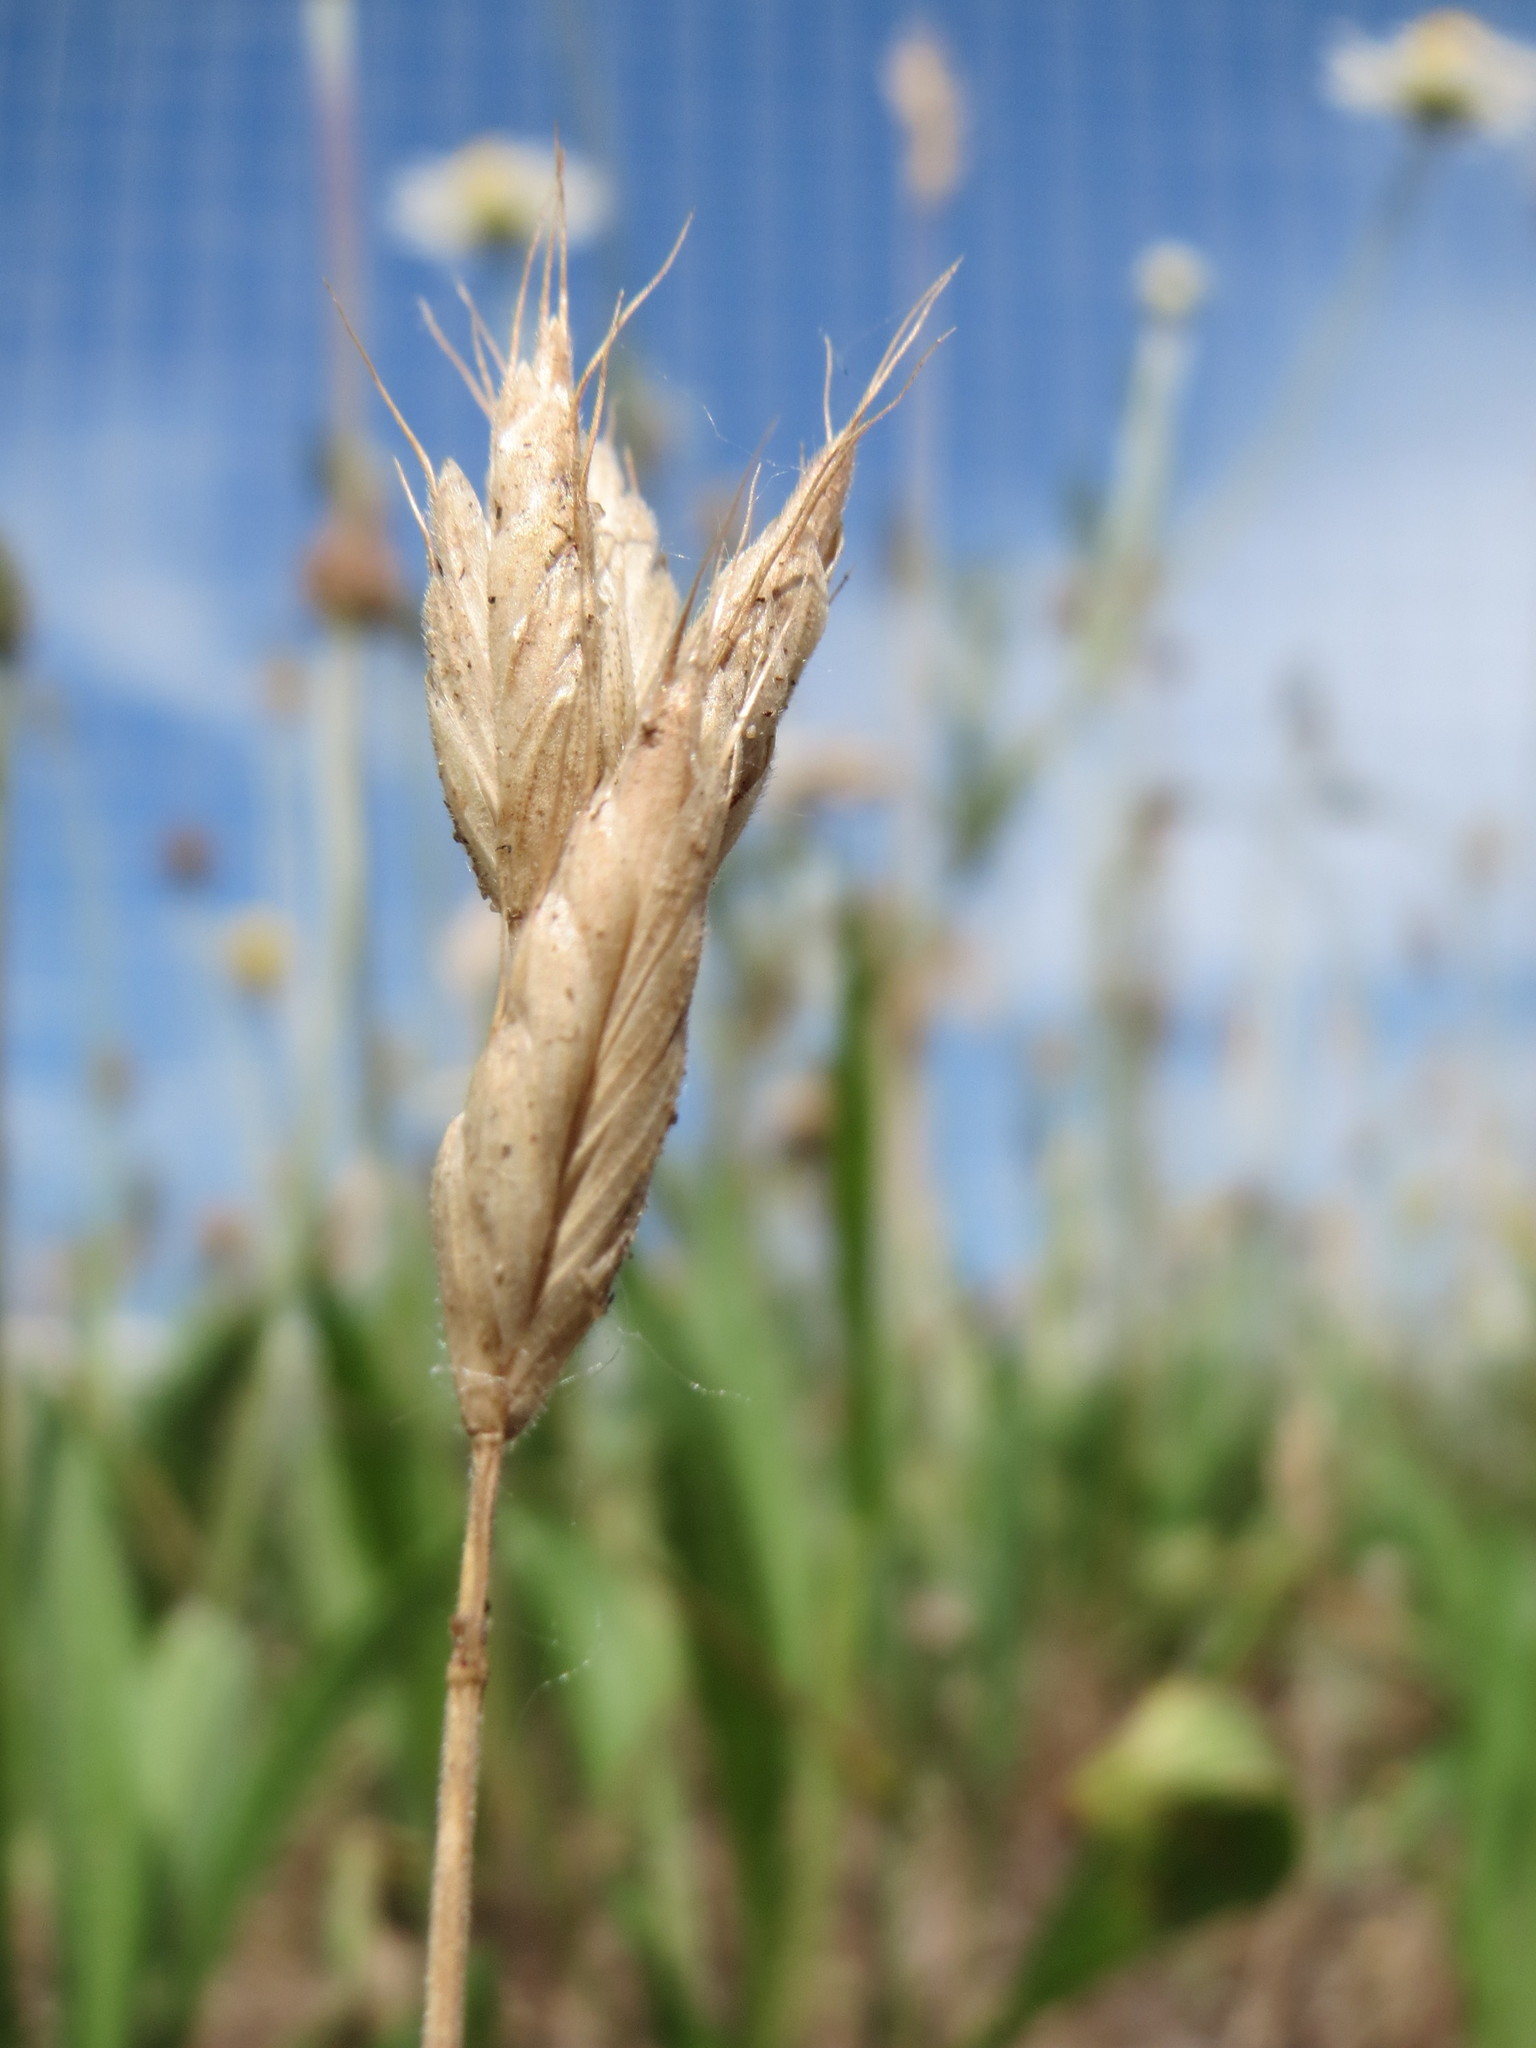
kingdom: Plantae
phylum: Tracheophyta
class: Liliopsida
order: Poales
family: Poaceae
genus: Bromus
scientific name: Bromus hordeaceus
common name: Soft brome
